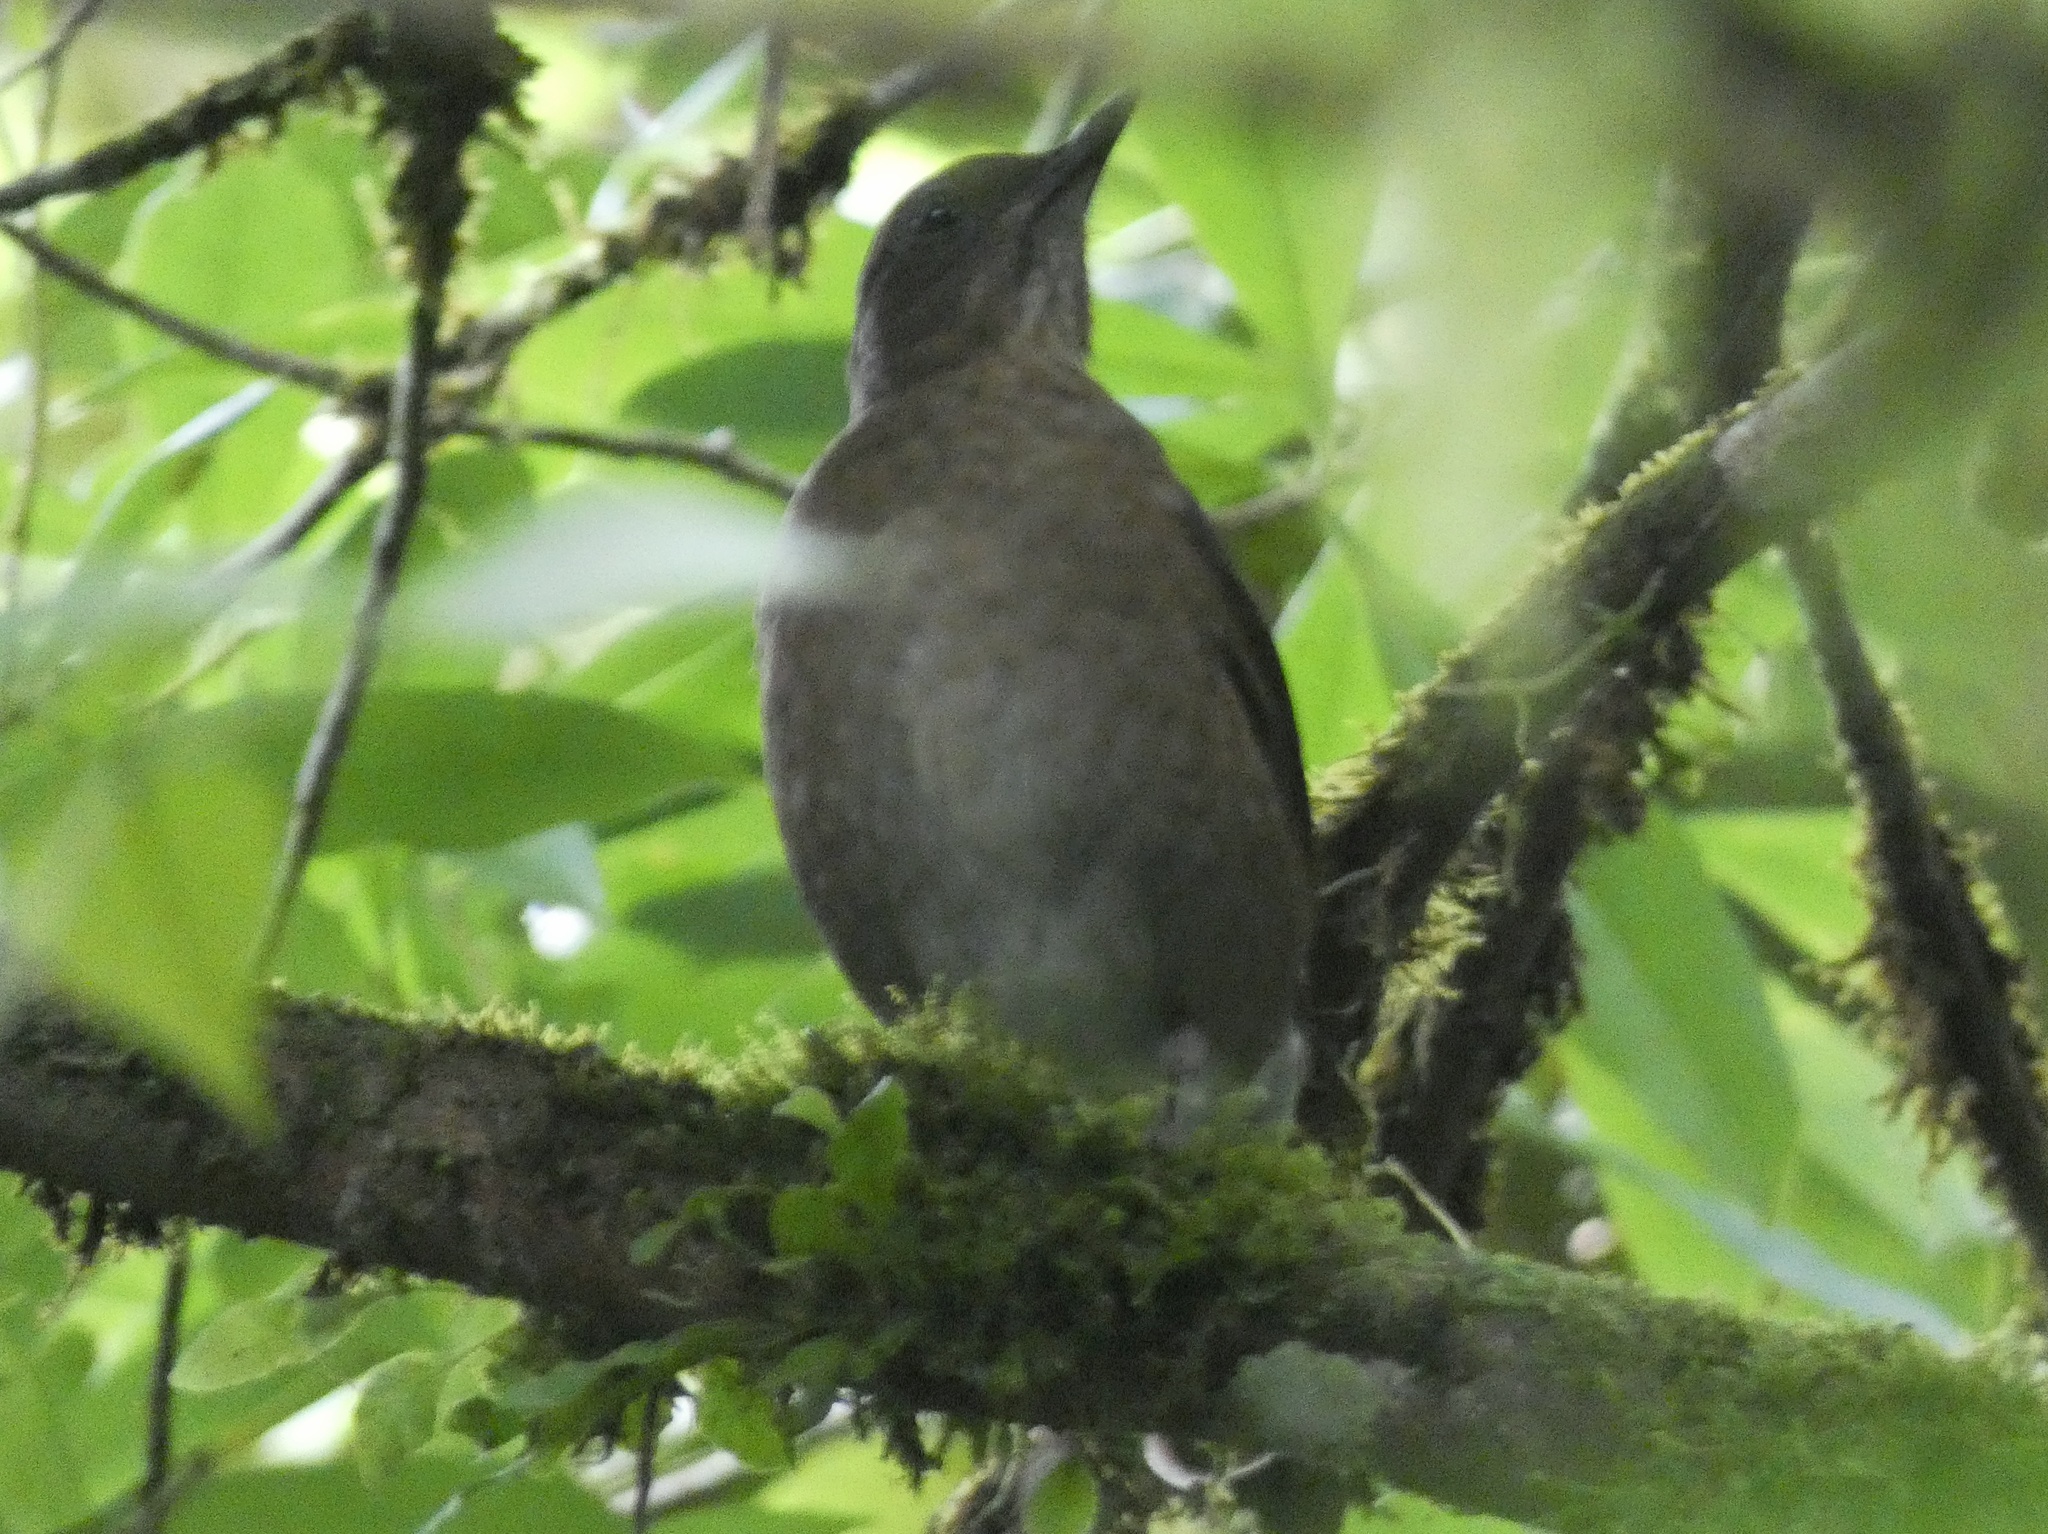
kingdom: Animalia
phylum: Chordata
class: Aves
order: Passeriformes
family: Turdidae
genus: Turdus
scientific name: Turdus plebejus
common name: Mountain thrush
